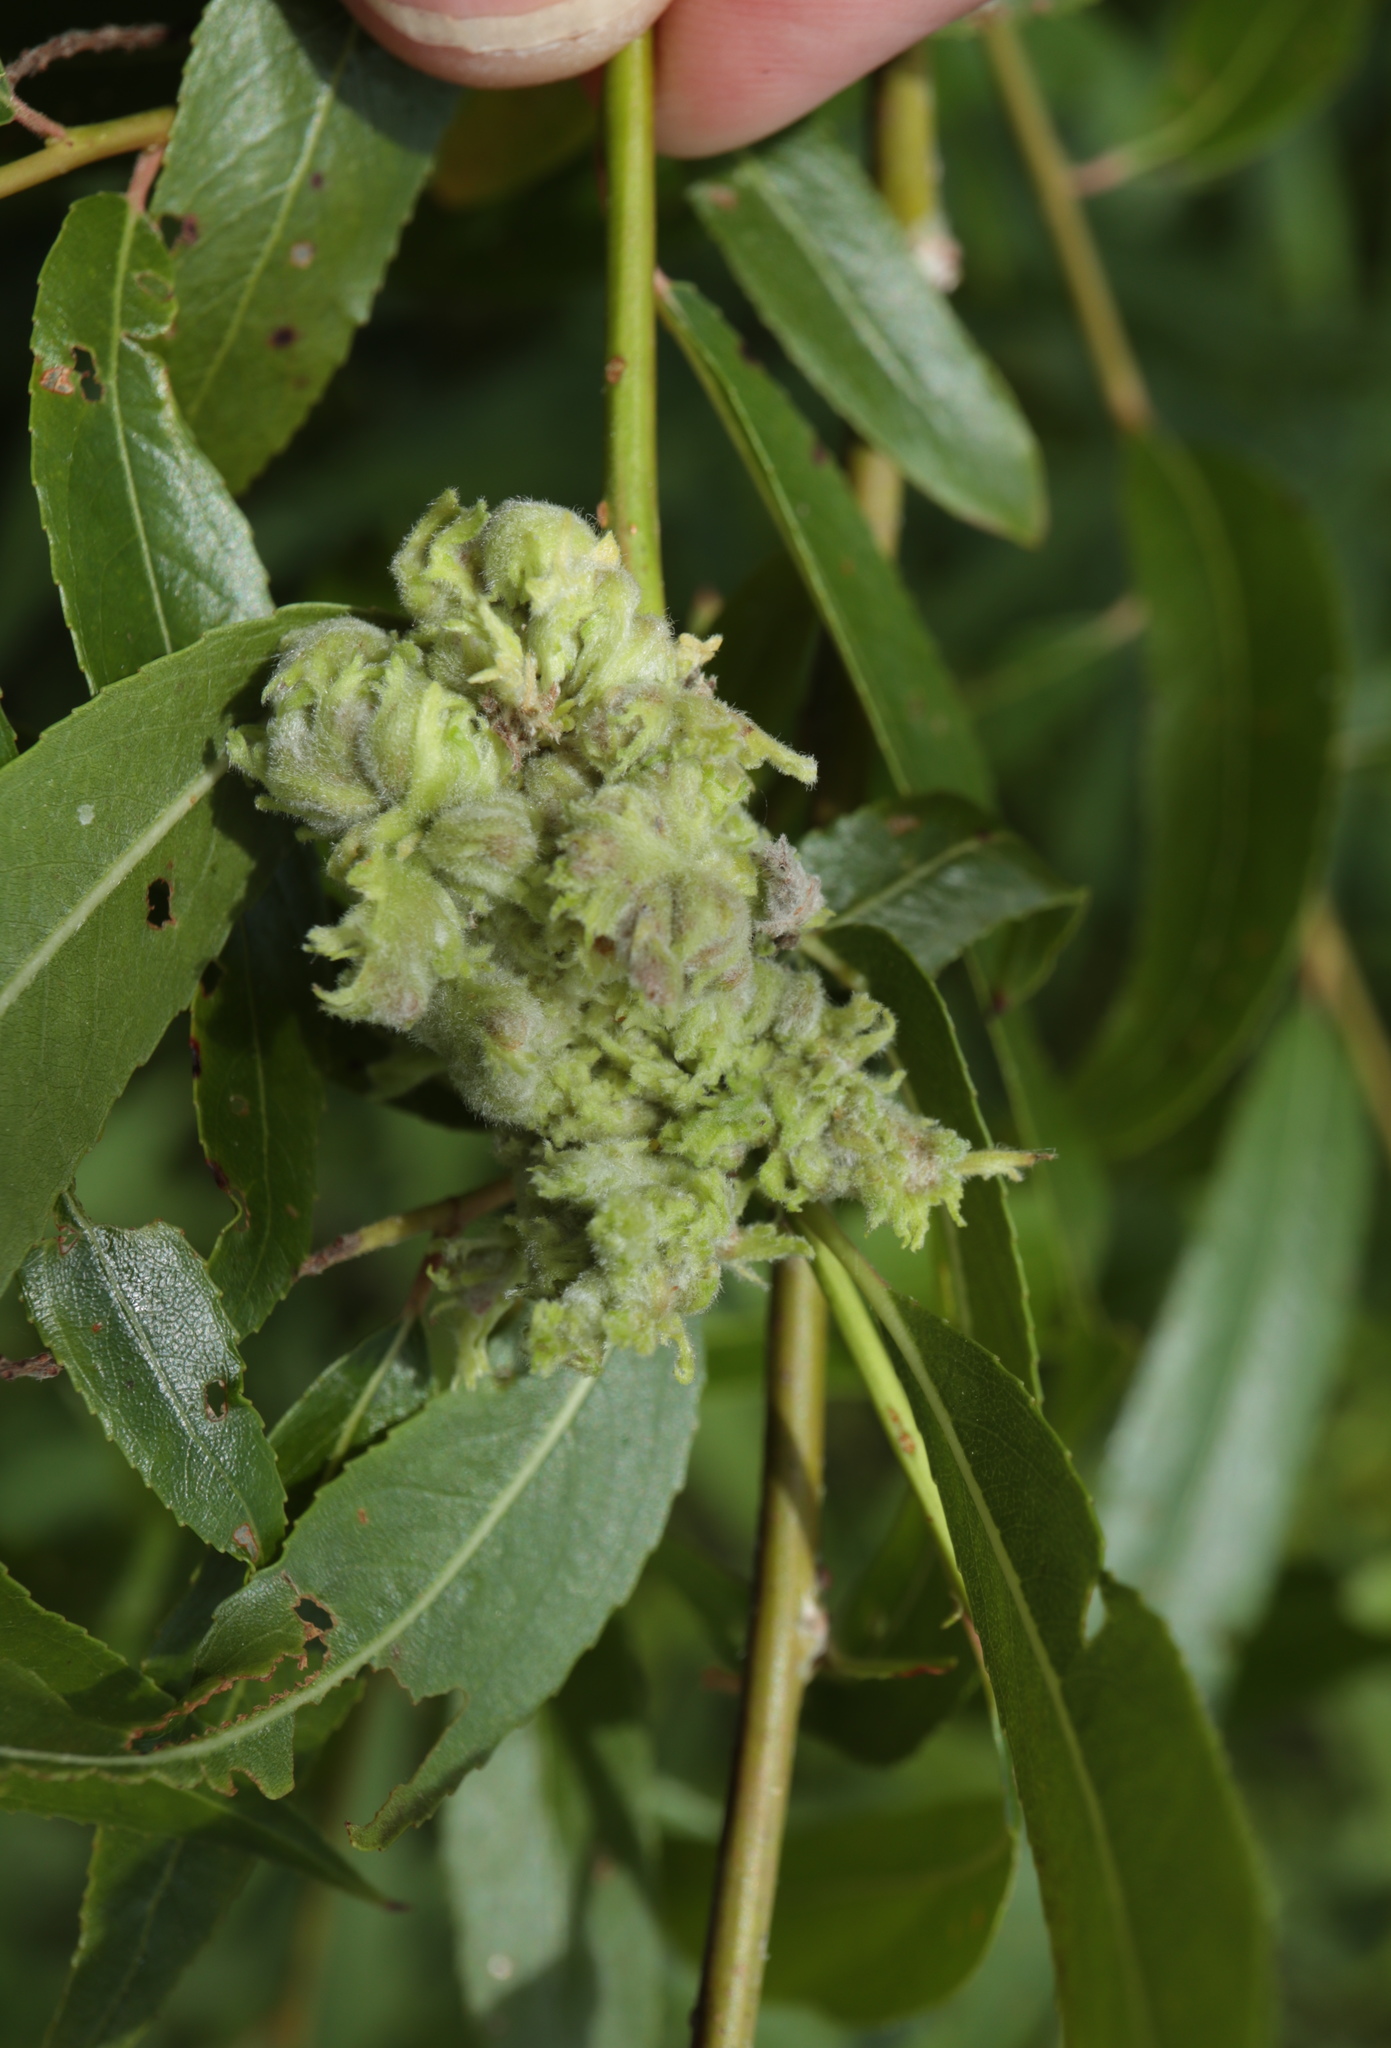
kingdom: Animalia
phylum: Arthropoda
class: Arachnida
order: Trombidiformes
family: Eriophyidae
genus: Aculops
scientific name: Aculops
